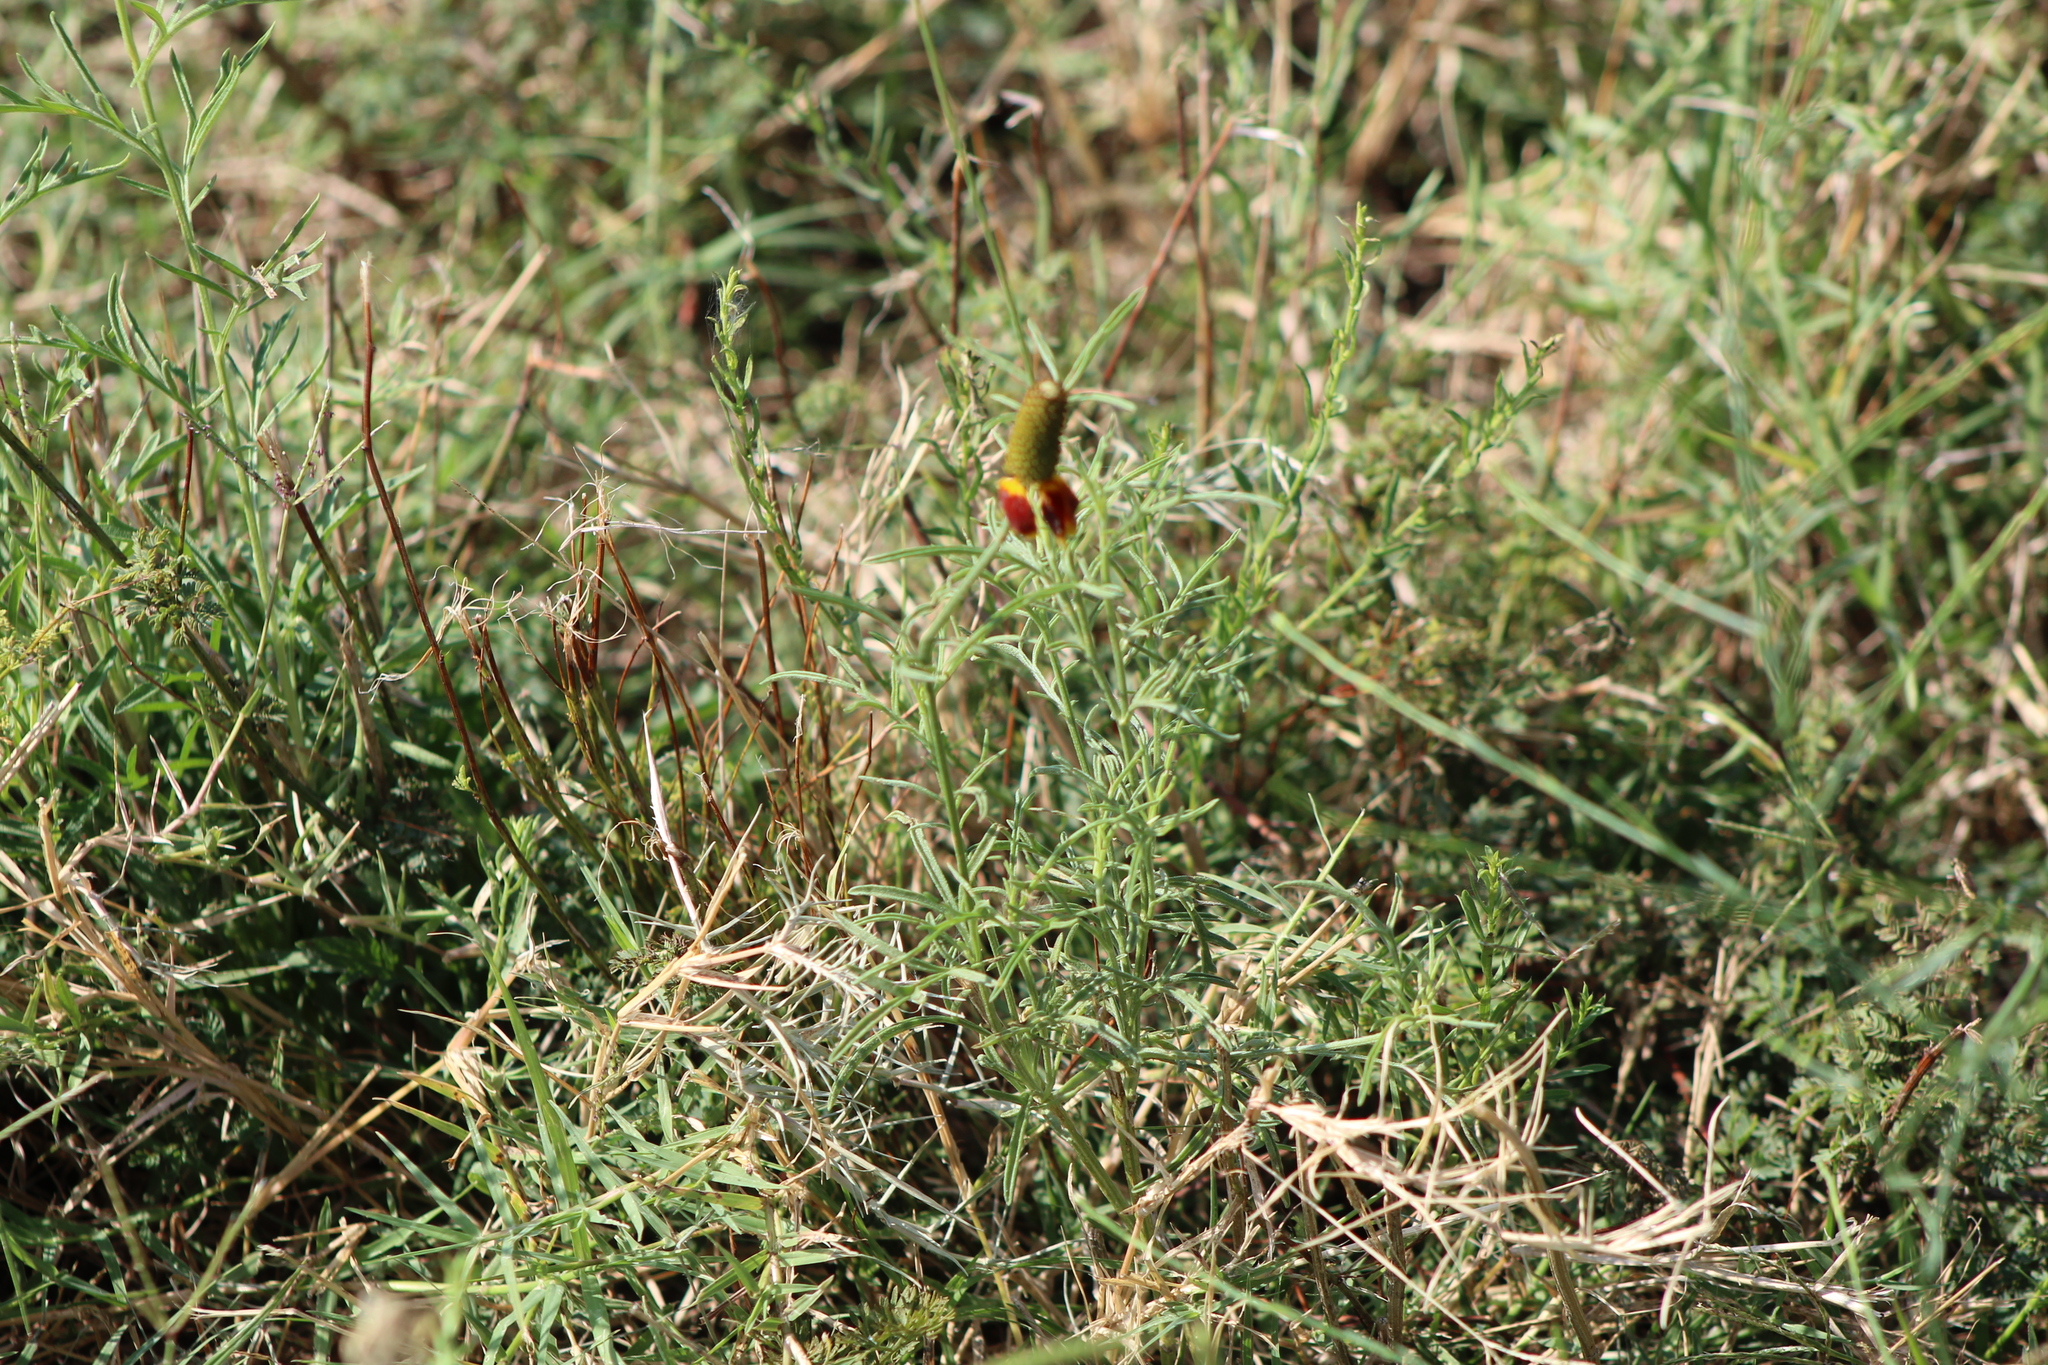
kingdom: Plantae
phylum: Tracheophyta
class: Magnoliopsida
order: Asterales
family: Asteraceae
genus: Ratibida
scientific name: Ratibida columnifera
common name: Prairie coneflower
